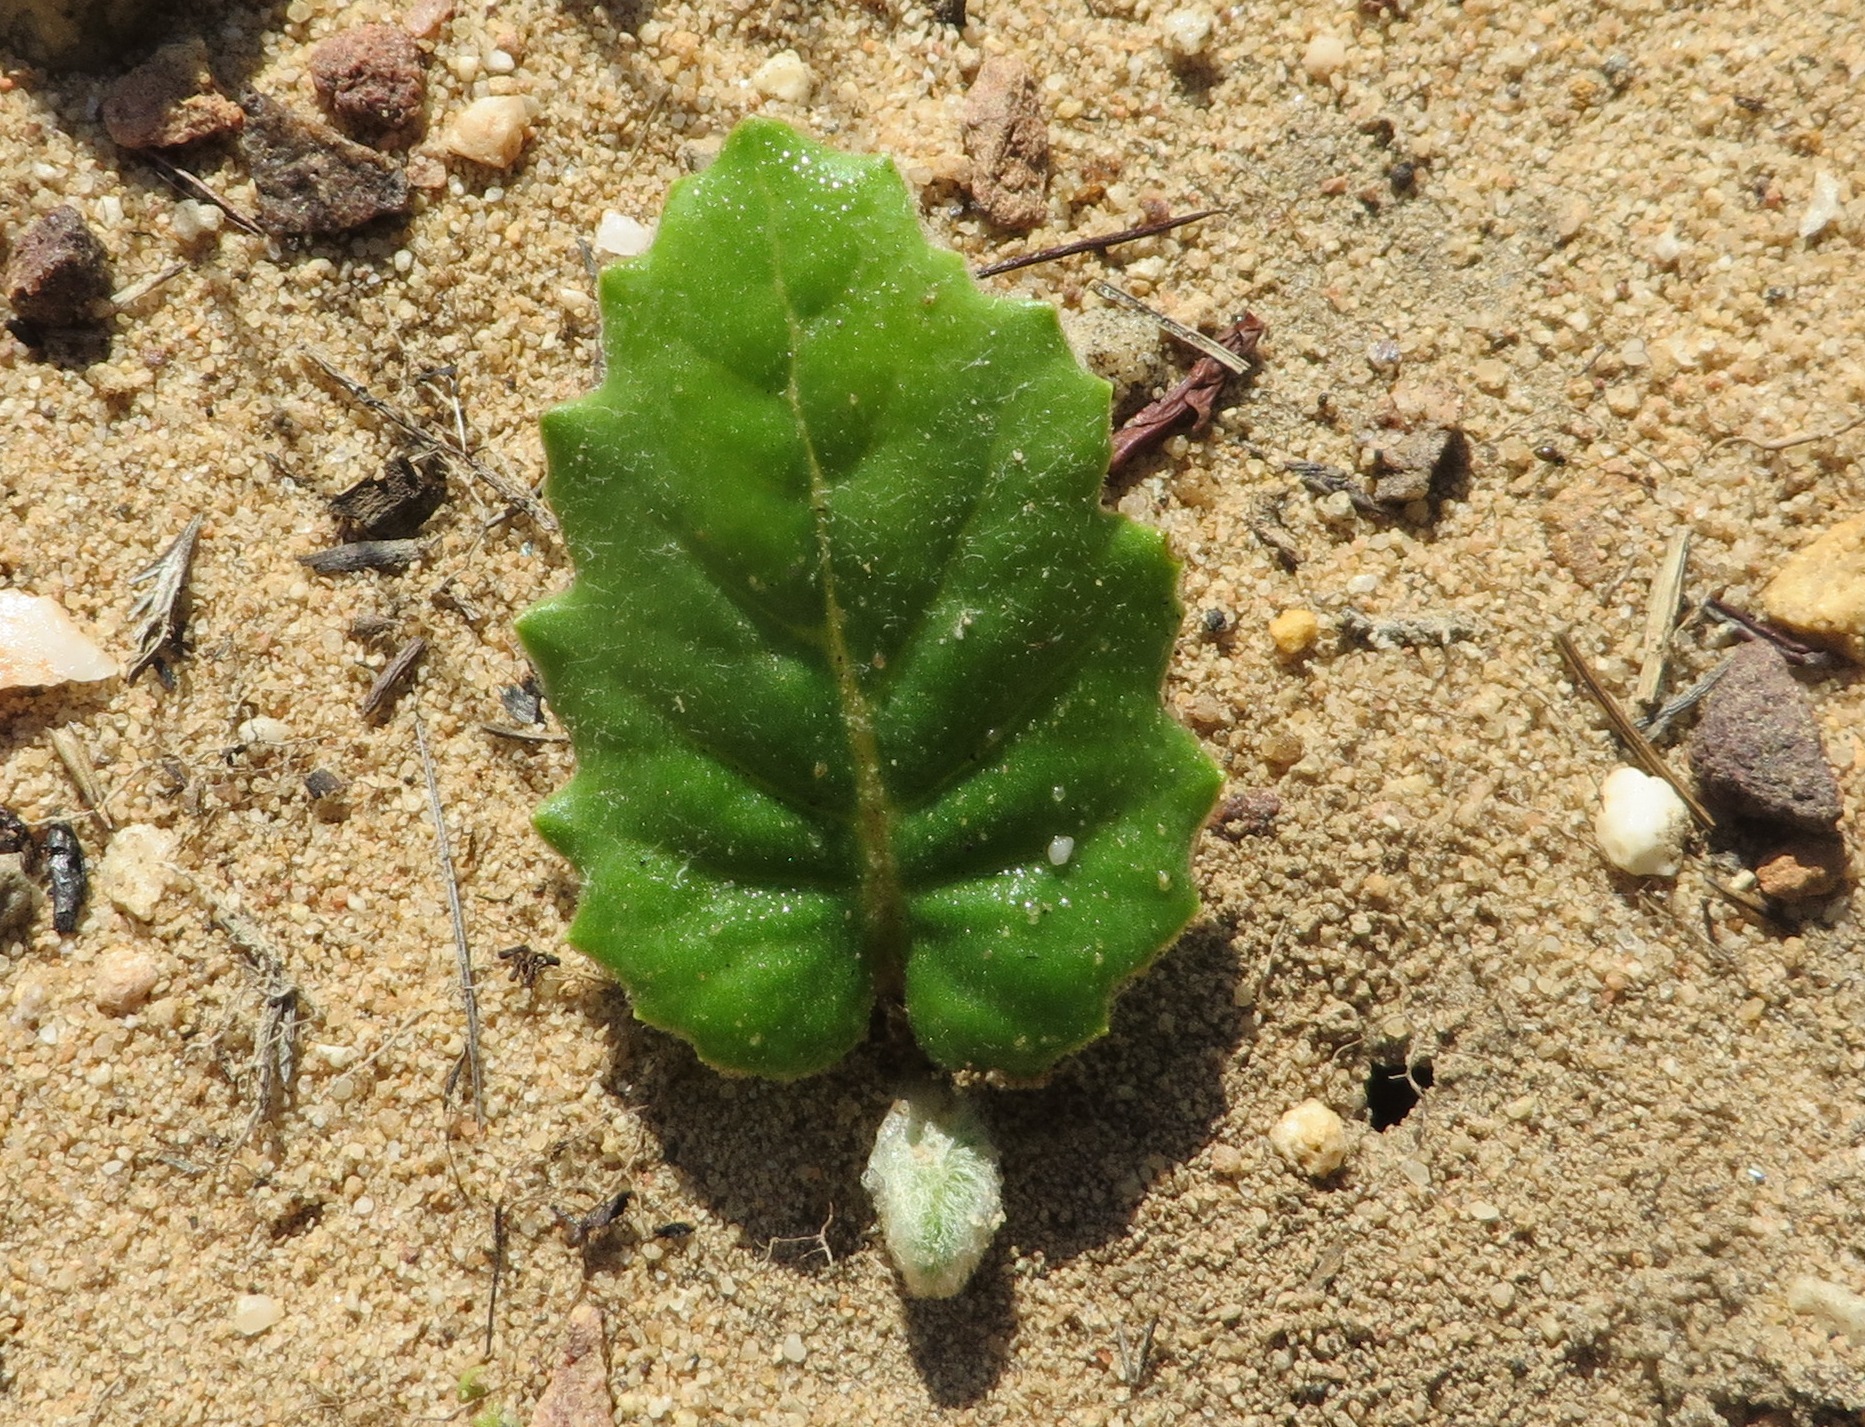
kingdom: Plantae
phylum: Tracheophyta
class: Magnoliopsida
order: Asterales
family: Asteraceae
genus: Othonna
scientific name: Othonna heterophylla
